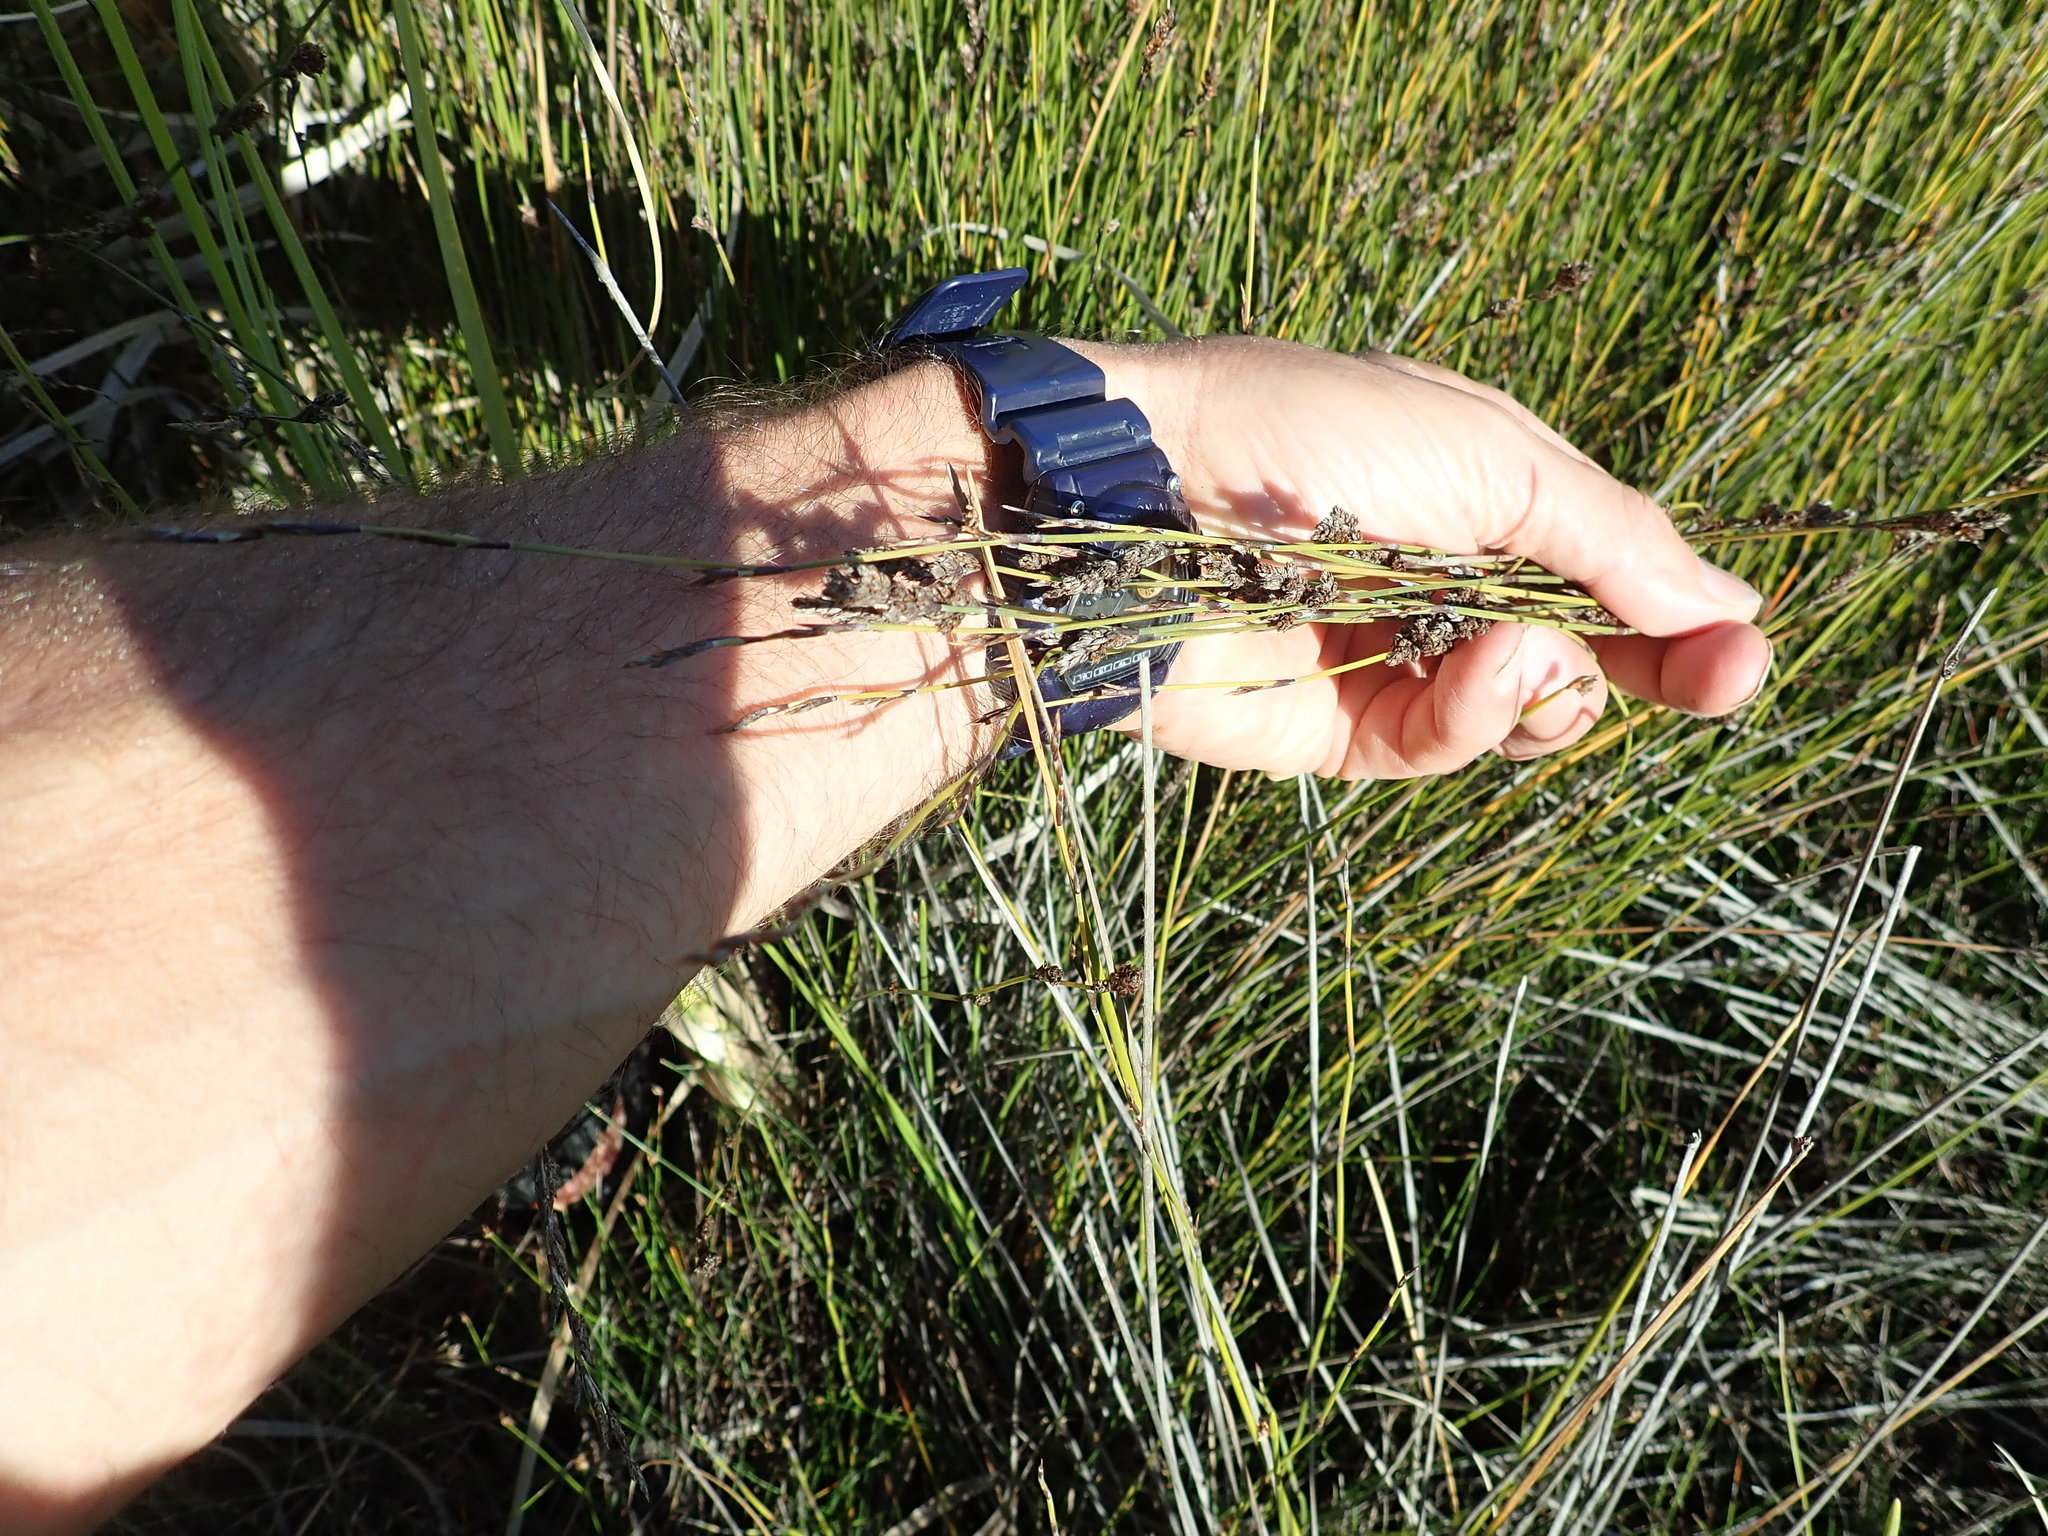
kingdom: Plantae
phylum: Tracheophyta
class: Liliopsida
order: Poales
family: Restionaceae
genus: Apodasmia
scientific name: Apodasmia similis
